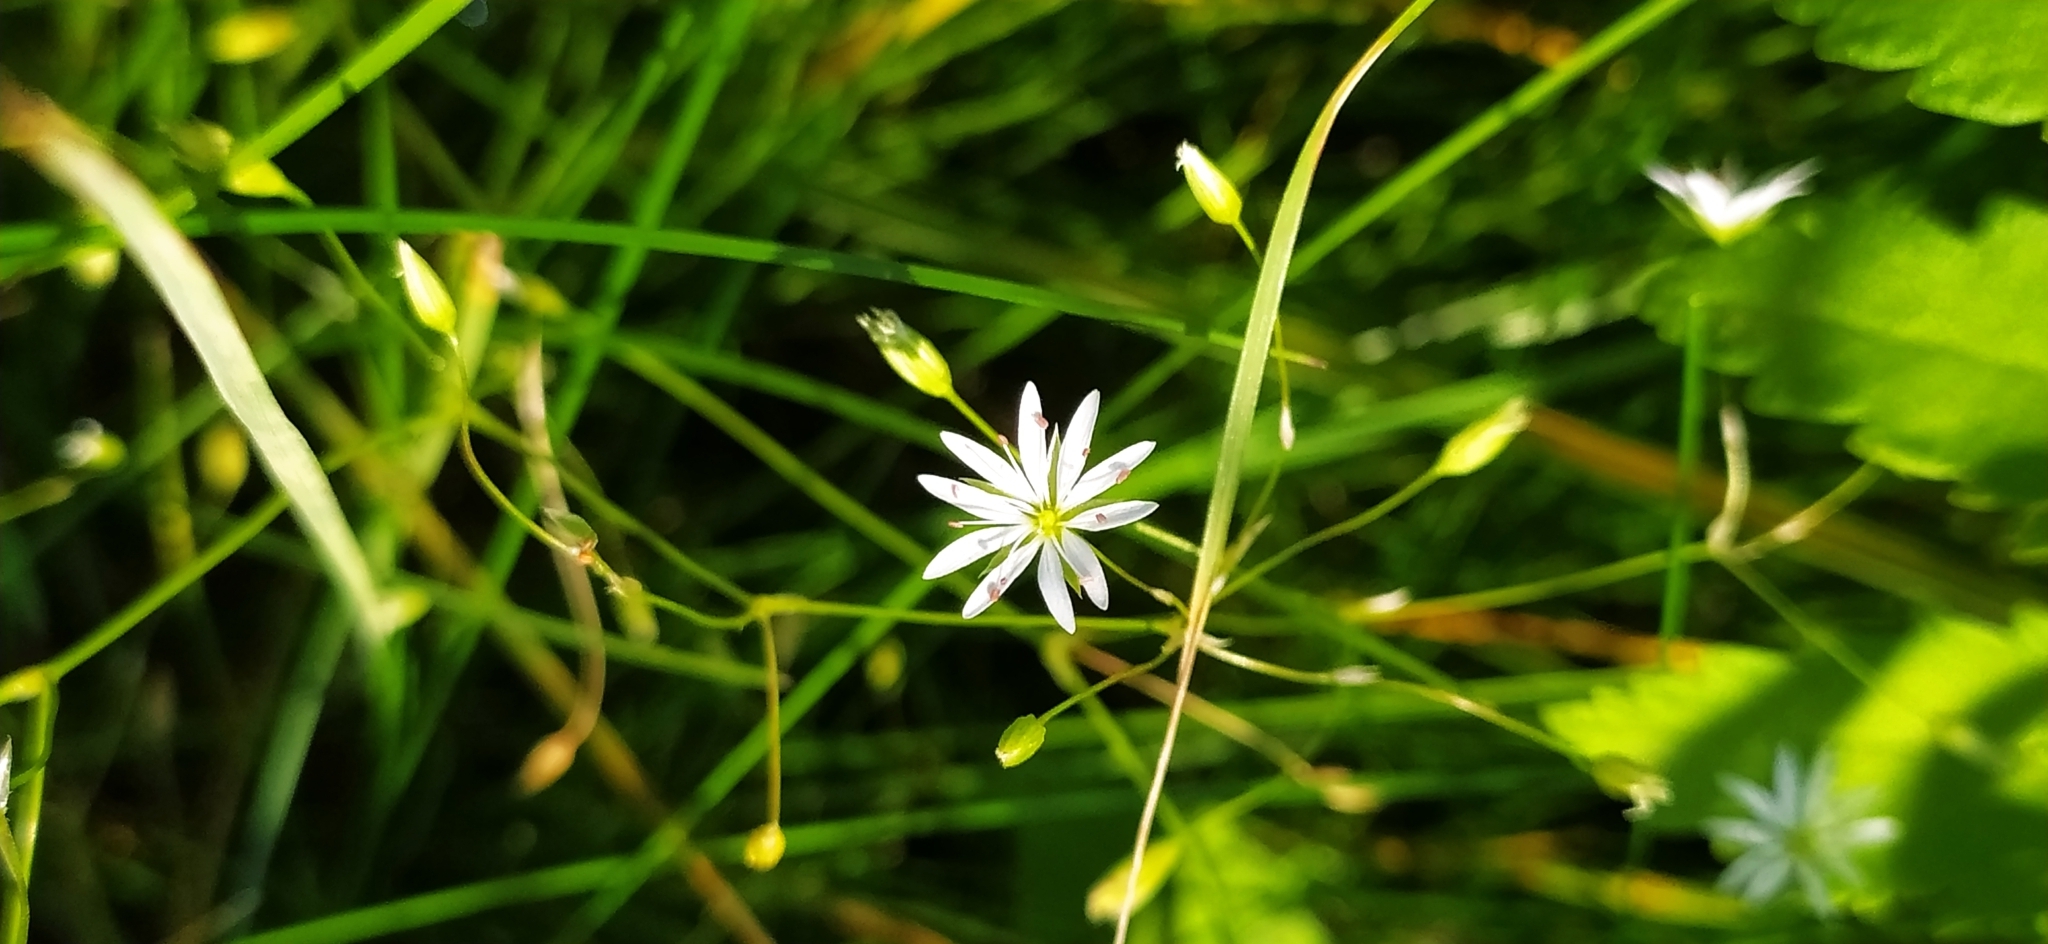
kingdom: Plantae
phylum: Tracheophyta
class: Magnoliopsida
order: Caryophyllales
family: Caryophyllaceae
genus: Stellaria
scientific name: Stellaria graminea
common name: Grass-like starwort
